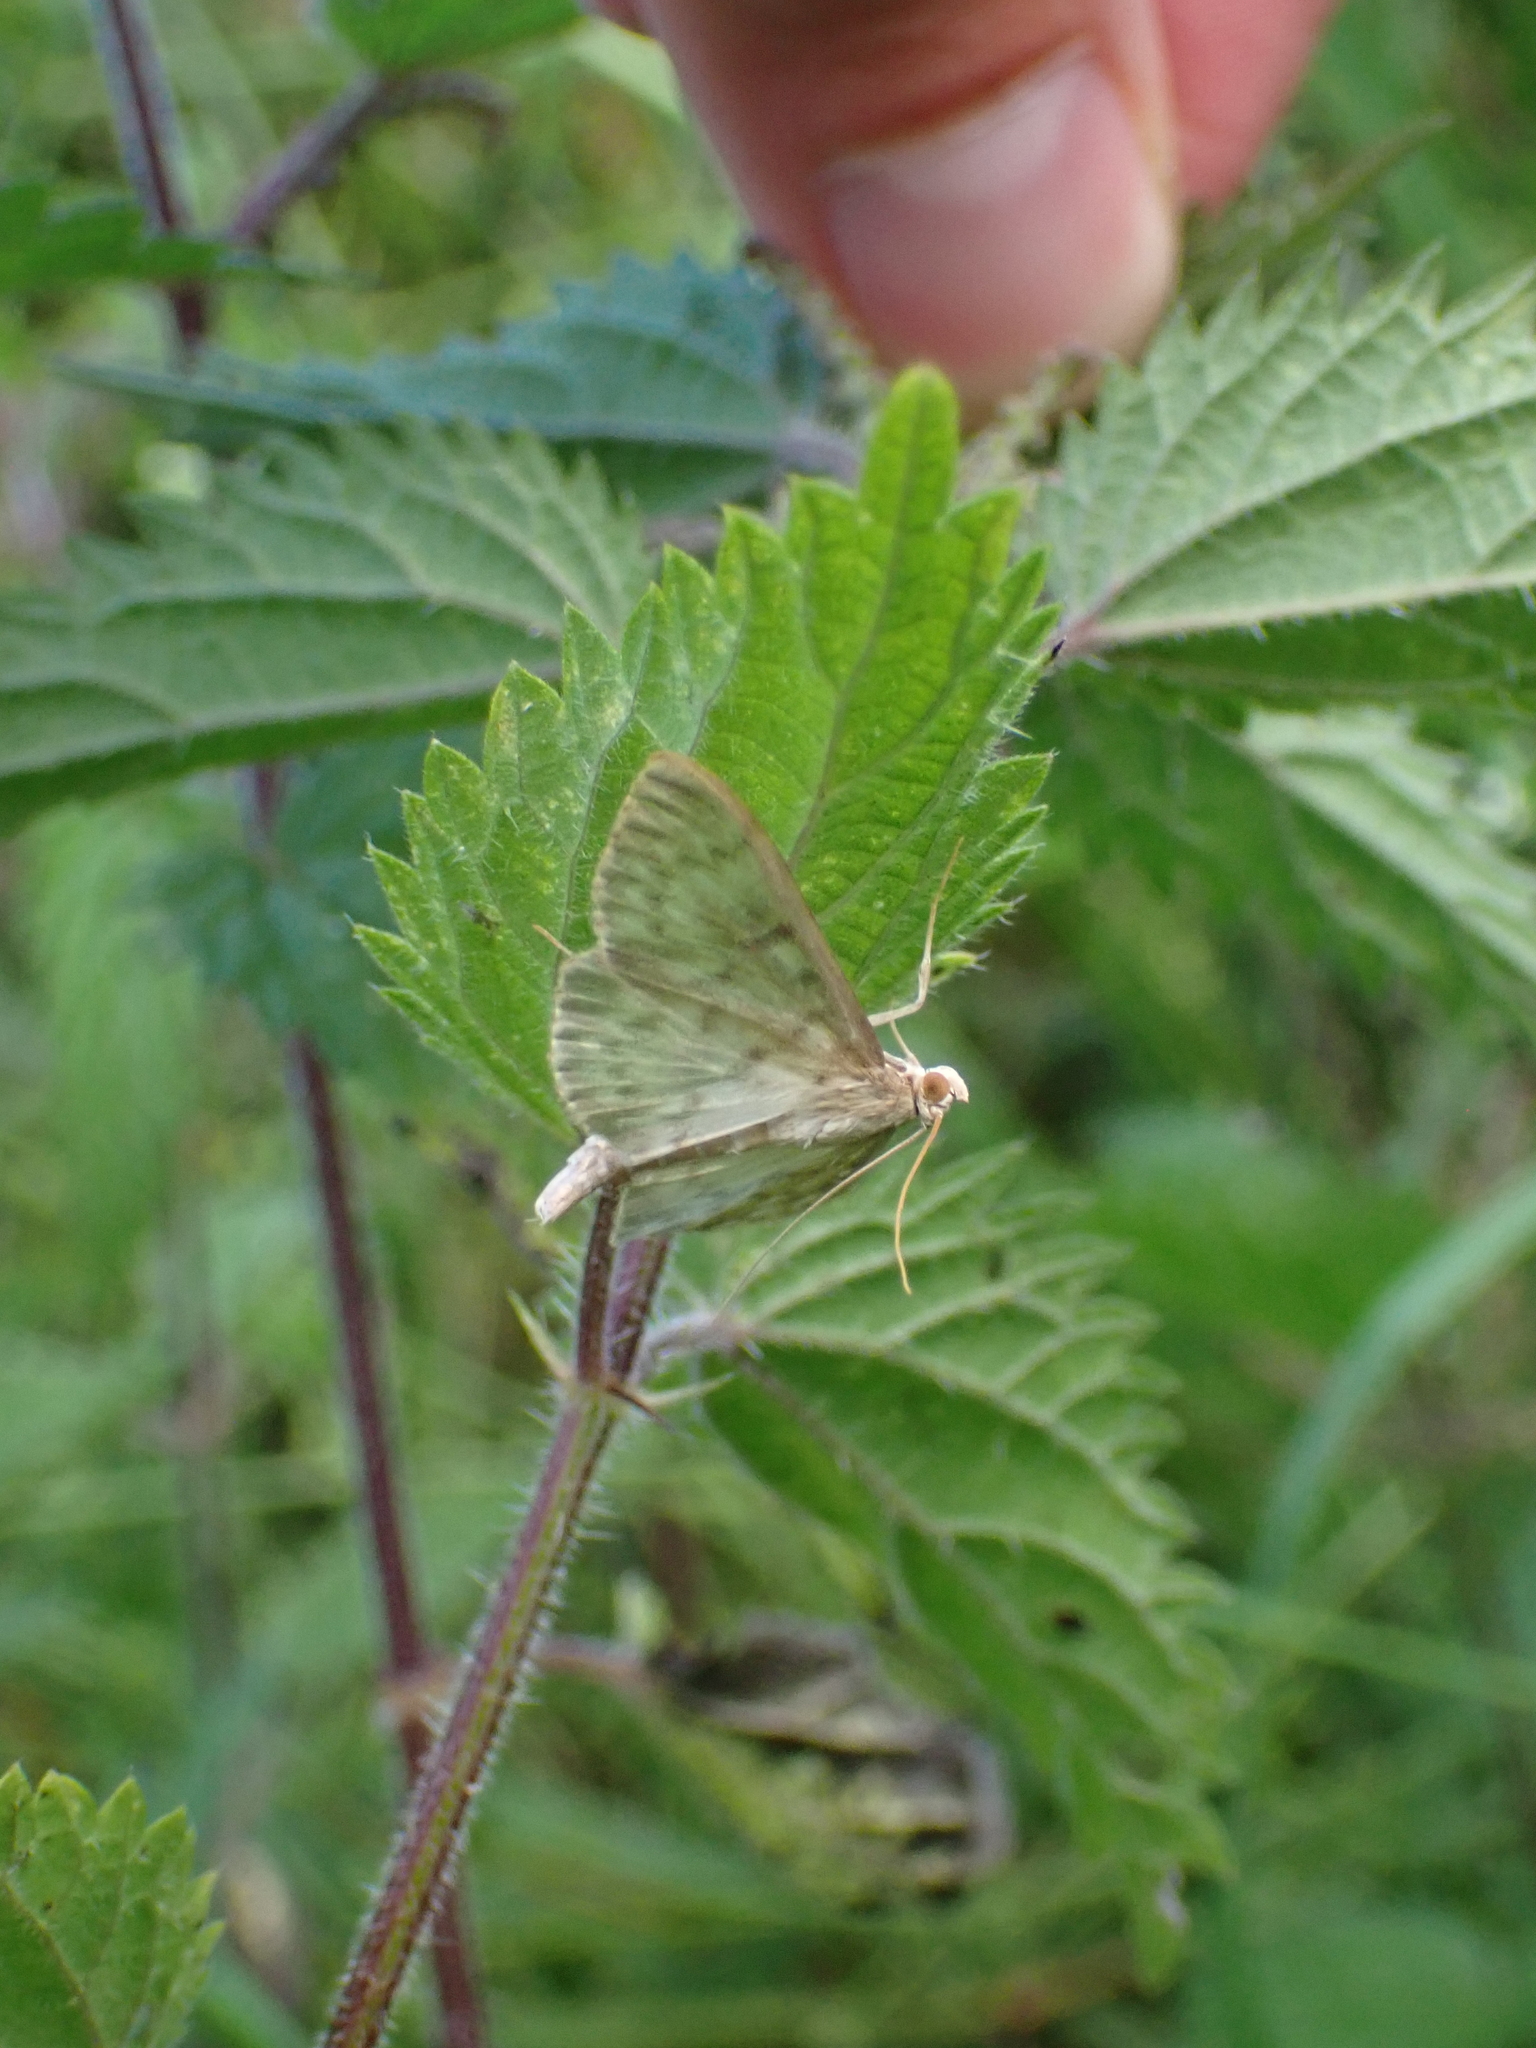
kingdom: Animalia
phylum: Arthropoda
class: Insecta
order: Lepidoptera
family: Crambidae
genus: Patania
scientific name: Patania ruralis
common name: Mother of pearl
